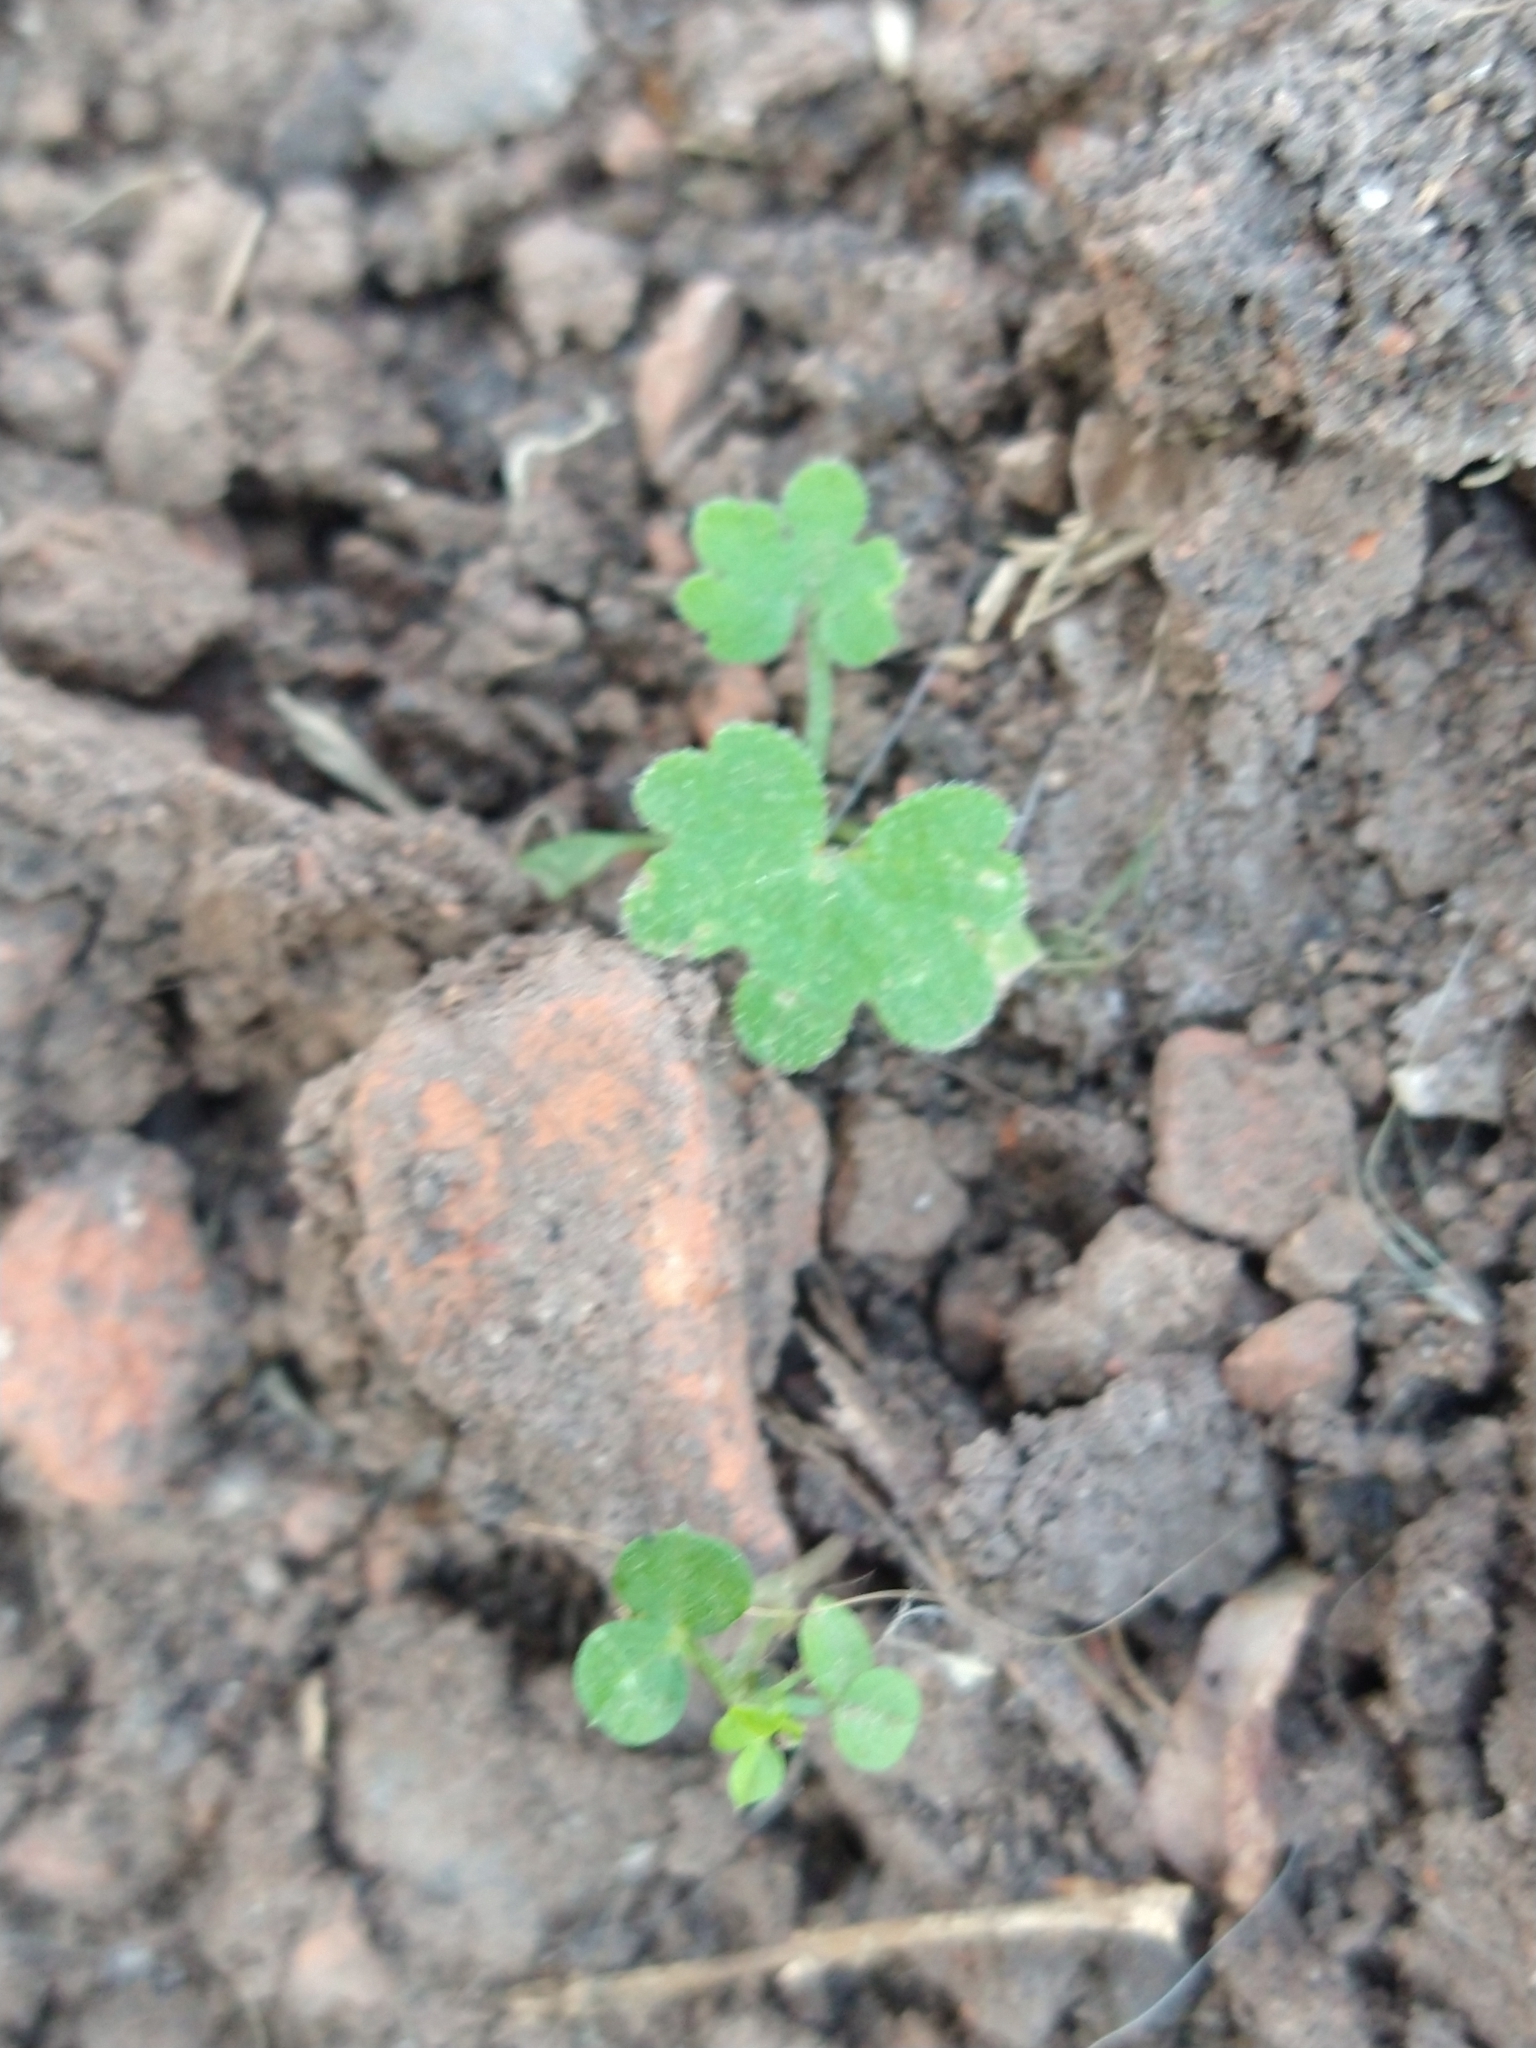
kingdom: Plantae
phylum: Tracheophyta
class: Magnoliopsida
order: Apiales
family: Apiaceae
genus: Bowlesia
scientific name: Bowlesia incana
